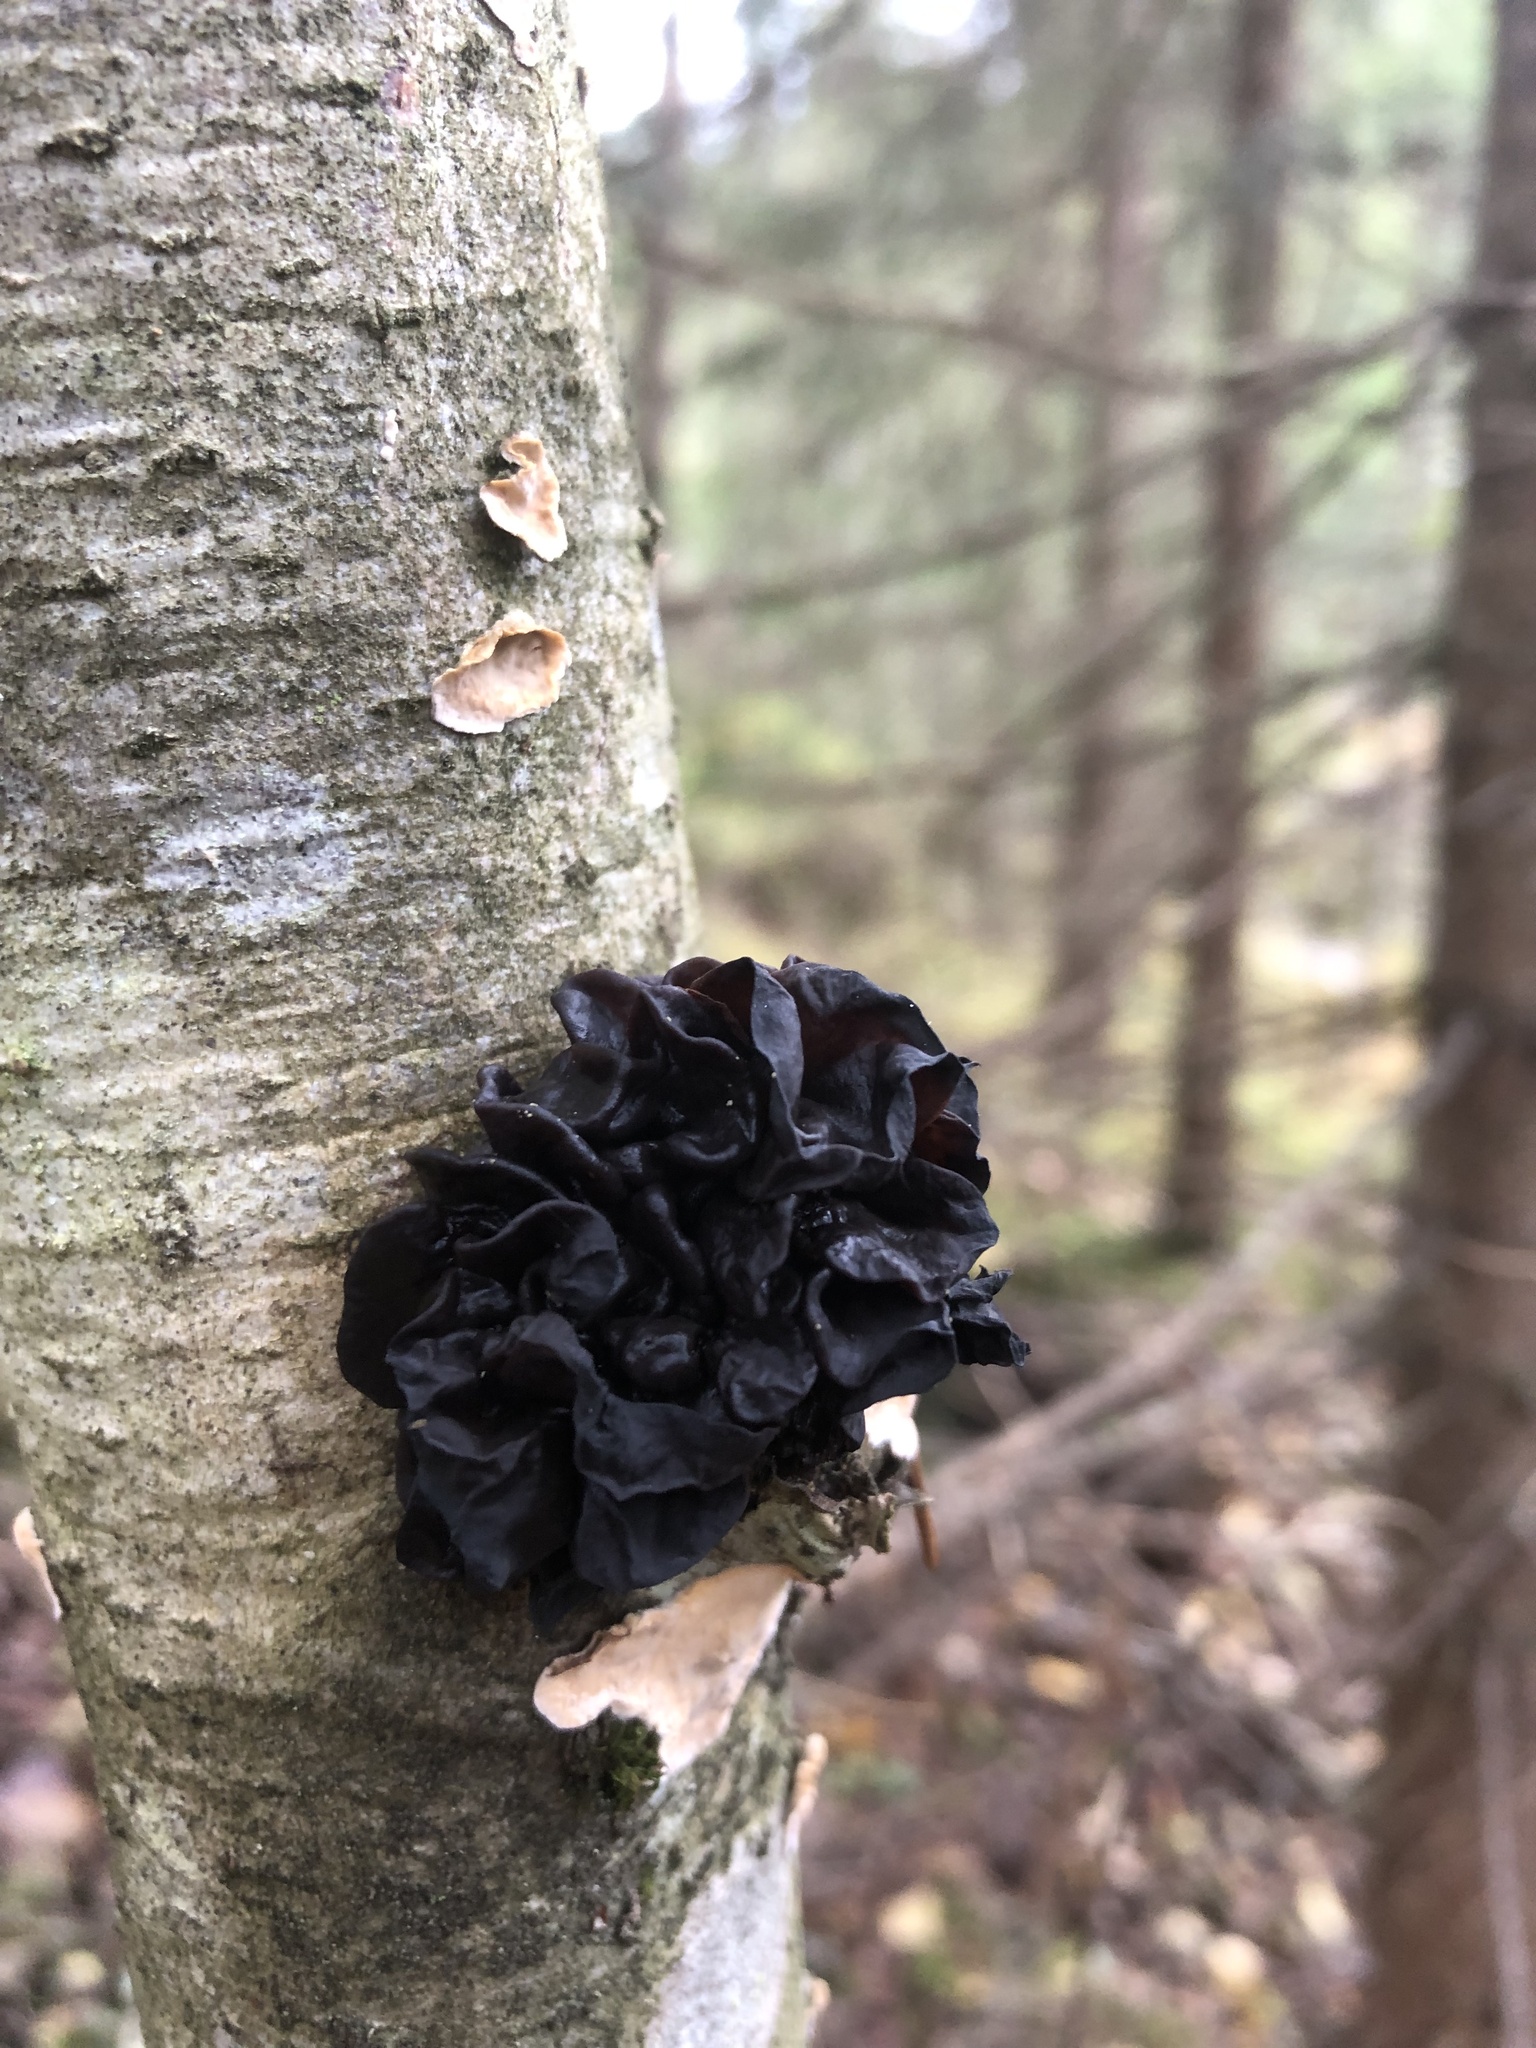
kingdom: Fungi
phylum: Basidiomycota
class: Agaricomycetes
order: Auriculariales
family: Auriculariaceae
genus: Exidia
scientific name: Exidia nigricans
